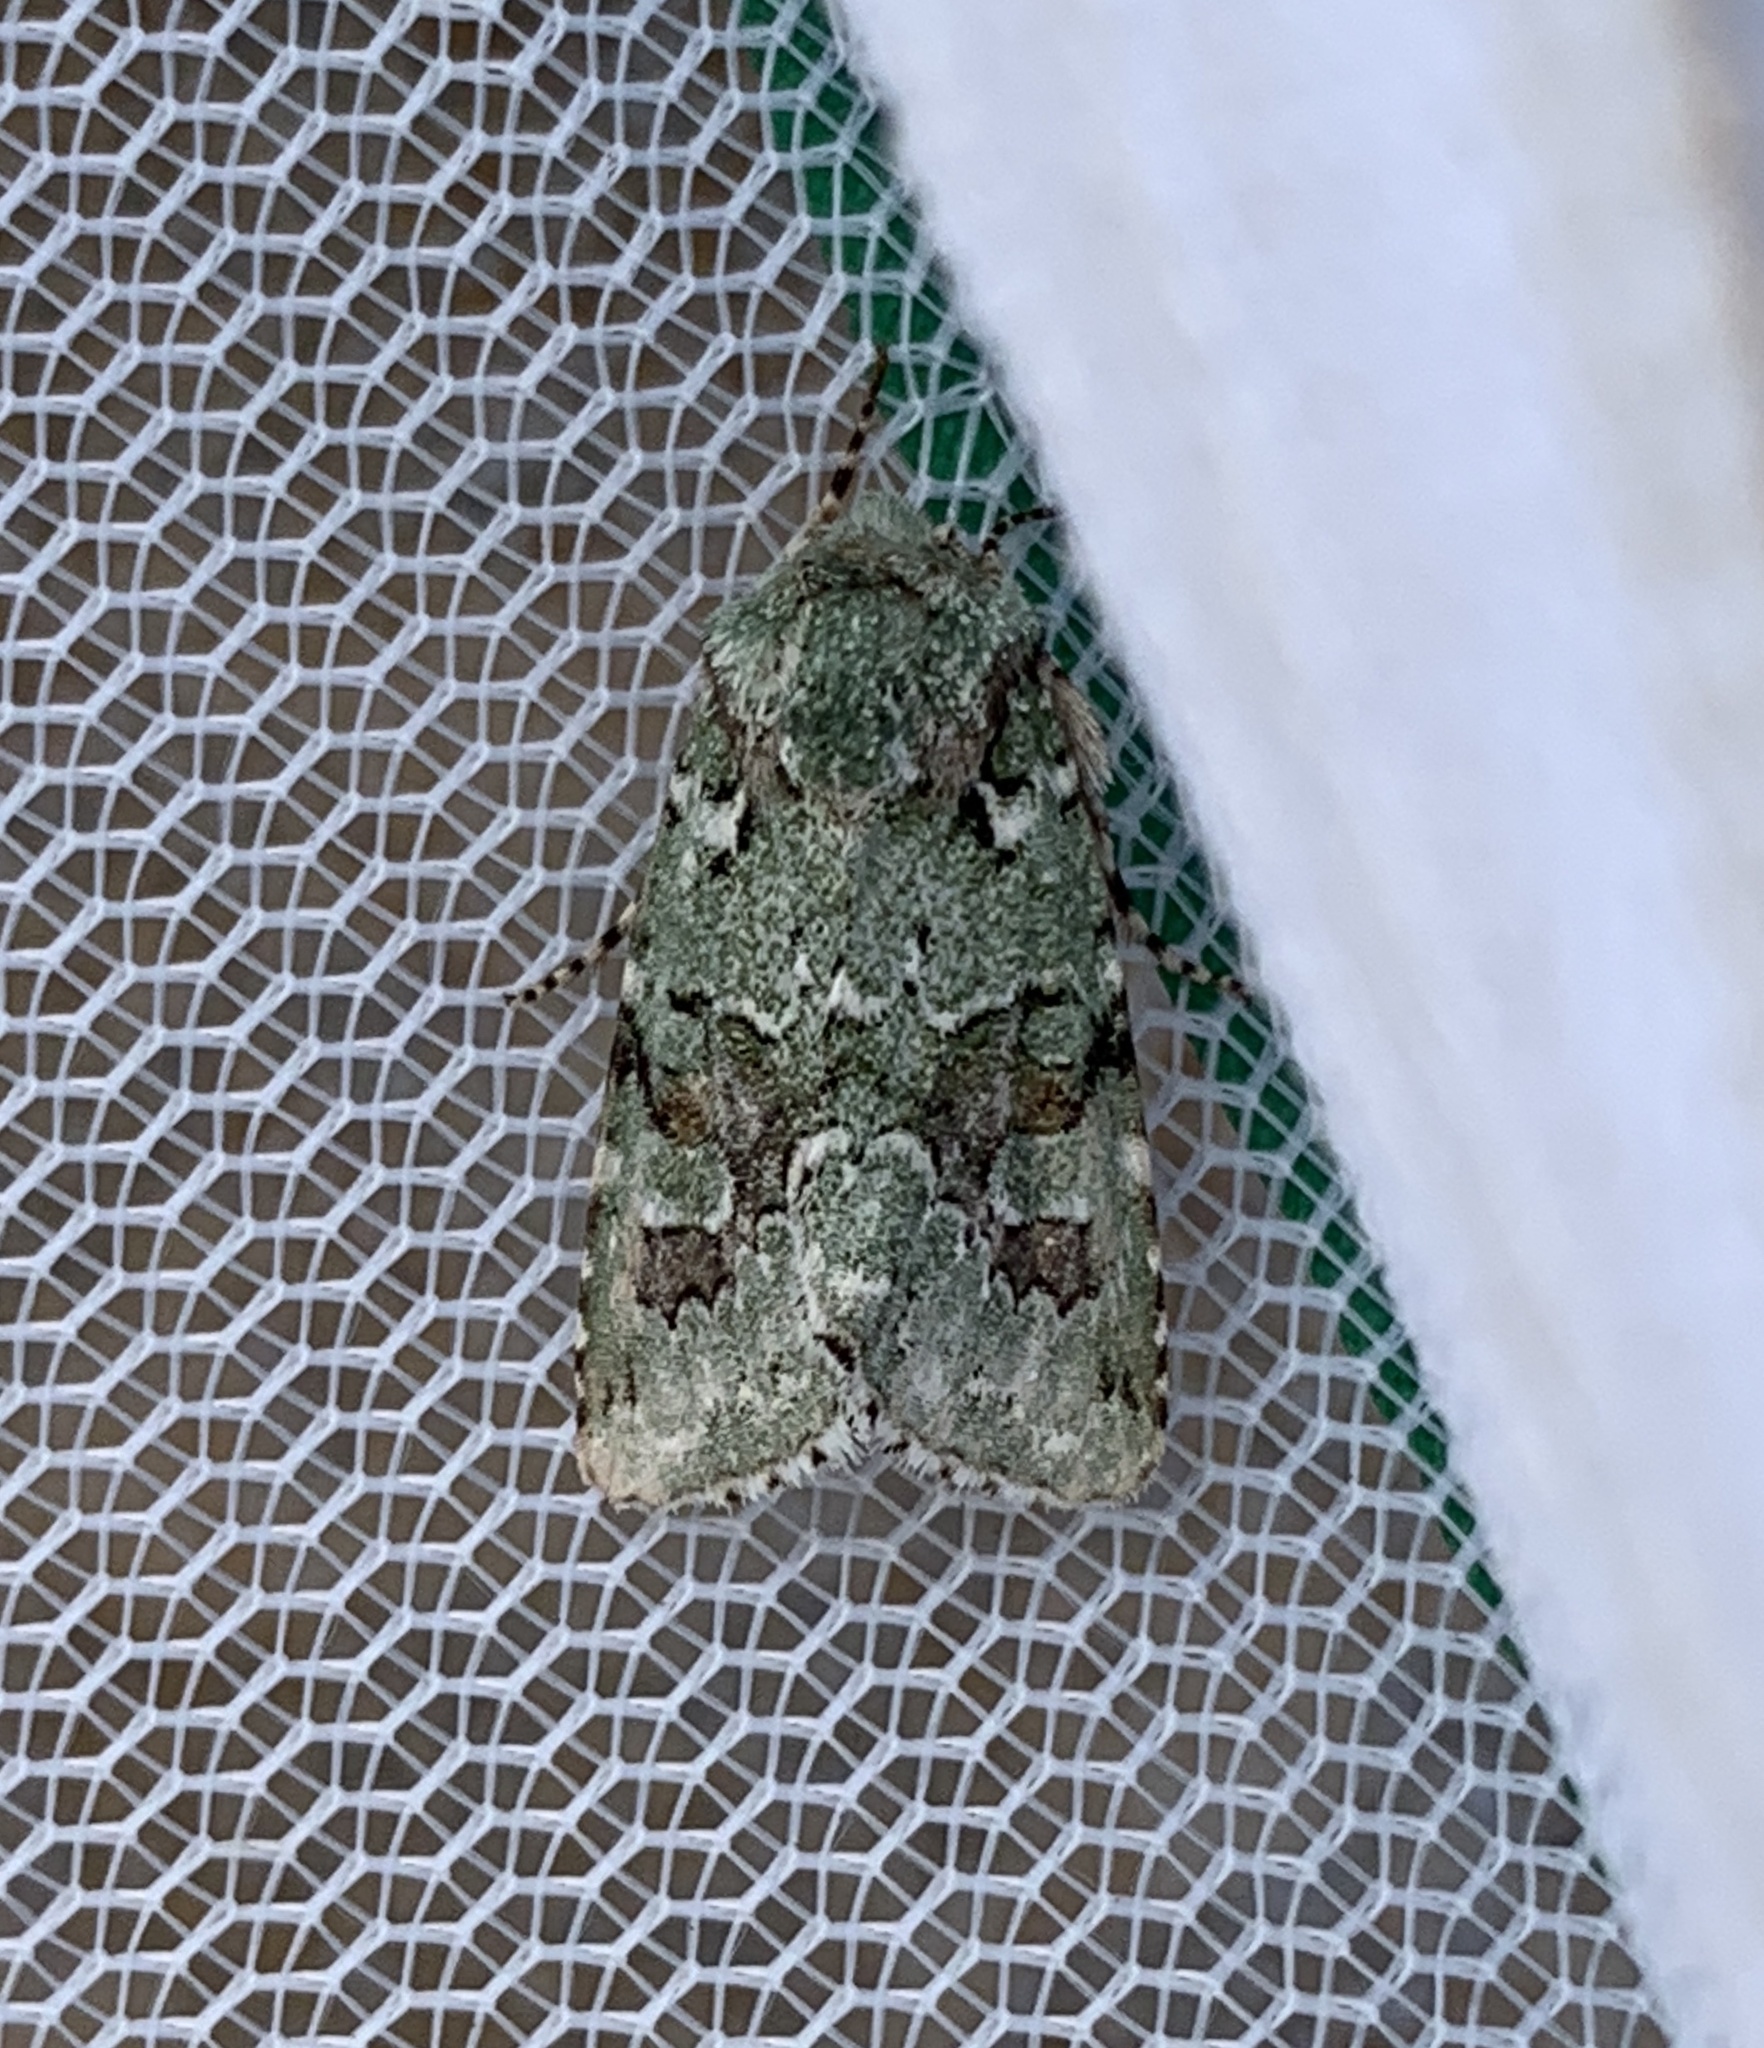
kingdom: Animalia
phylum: Arthropoda
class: Insecta
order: Lepidoptera
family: Noctuidae
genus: Lacinipolia
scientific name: Lacinipolia laudabilis
